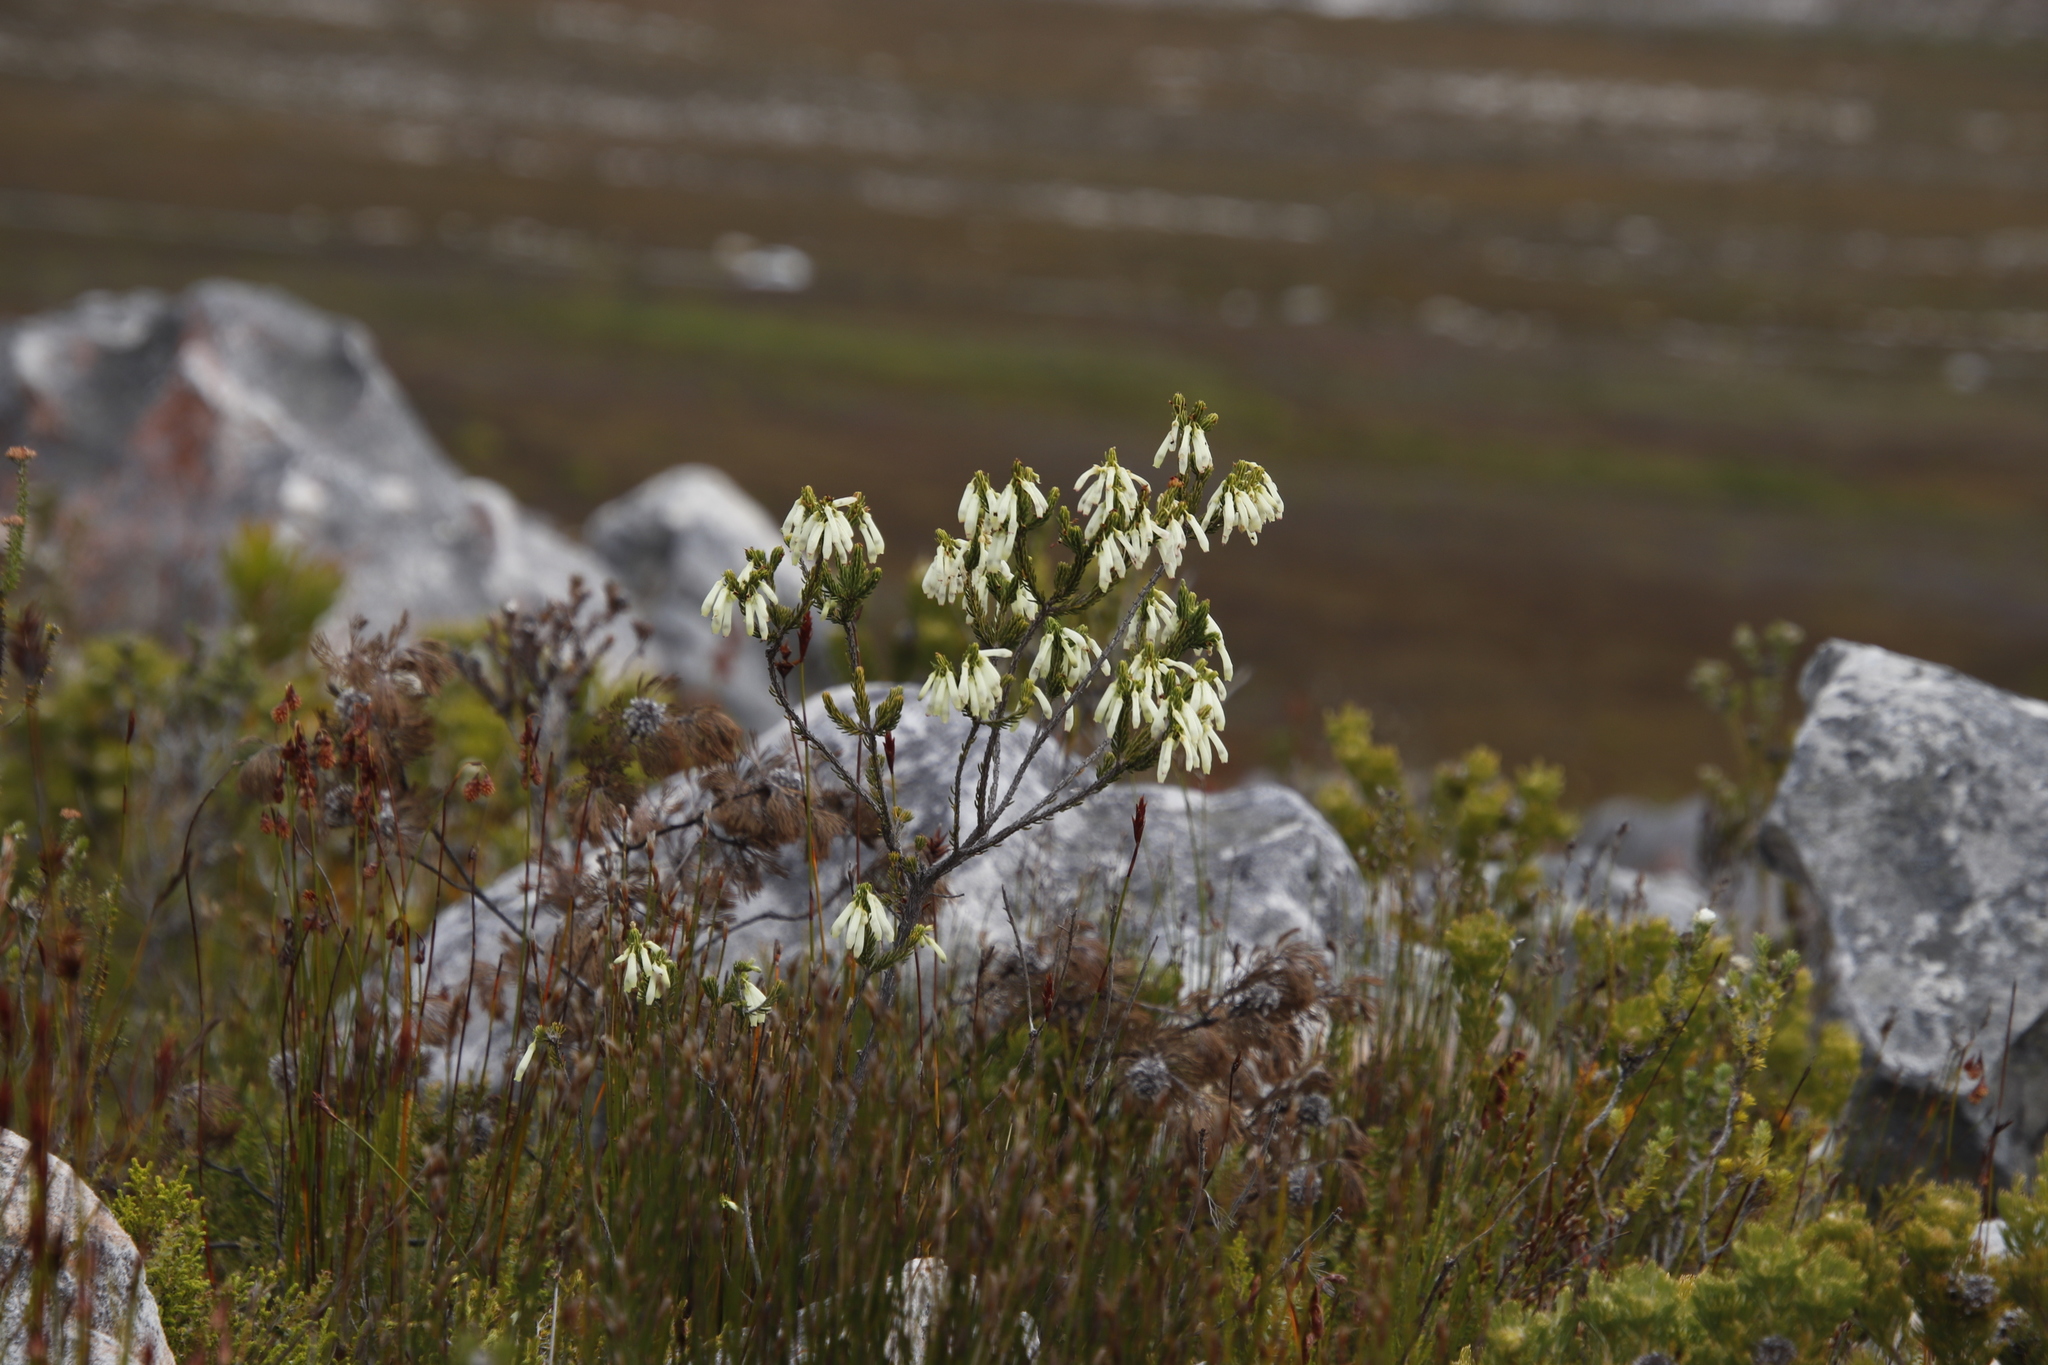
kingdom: Plantae
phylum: Tracheophyta
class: Magnoliopsida
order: Ericales
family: Ericaceae
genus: Erica
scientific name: Erica mammosa
